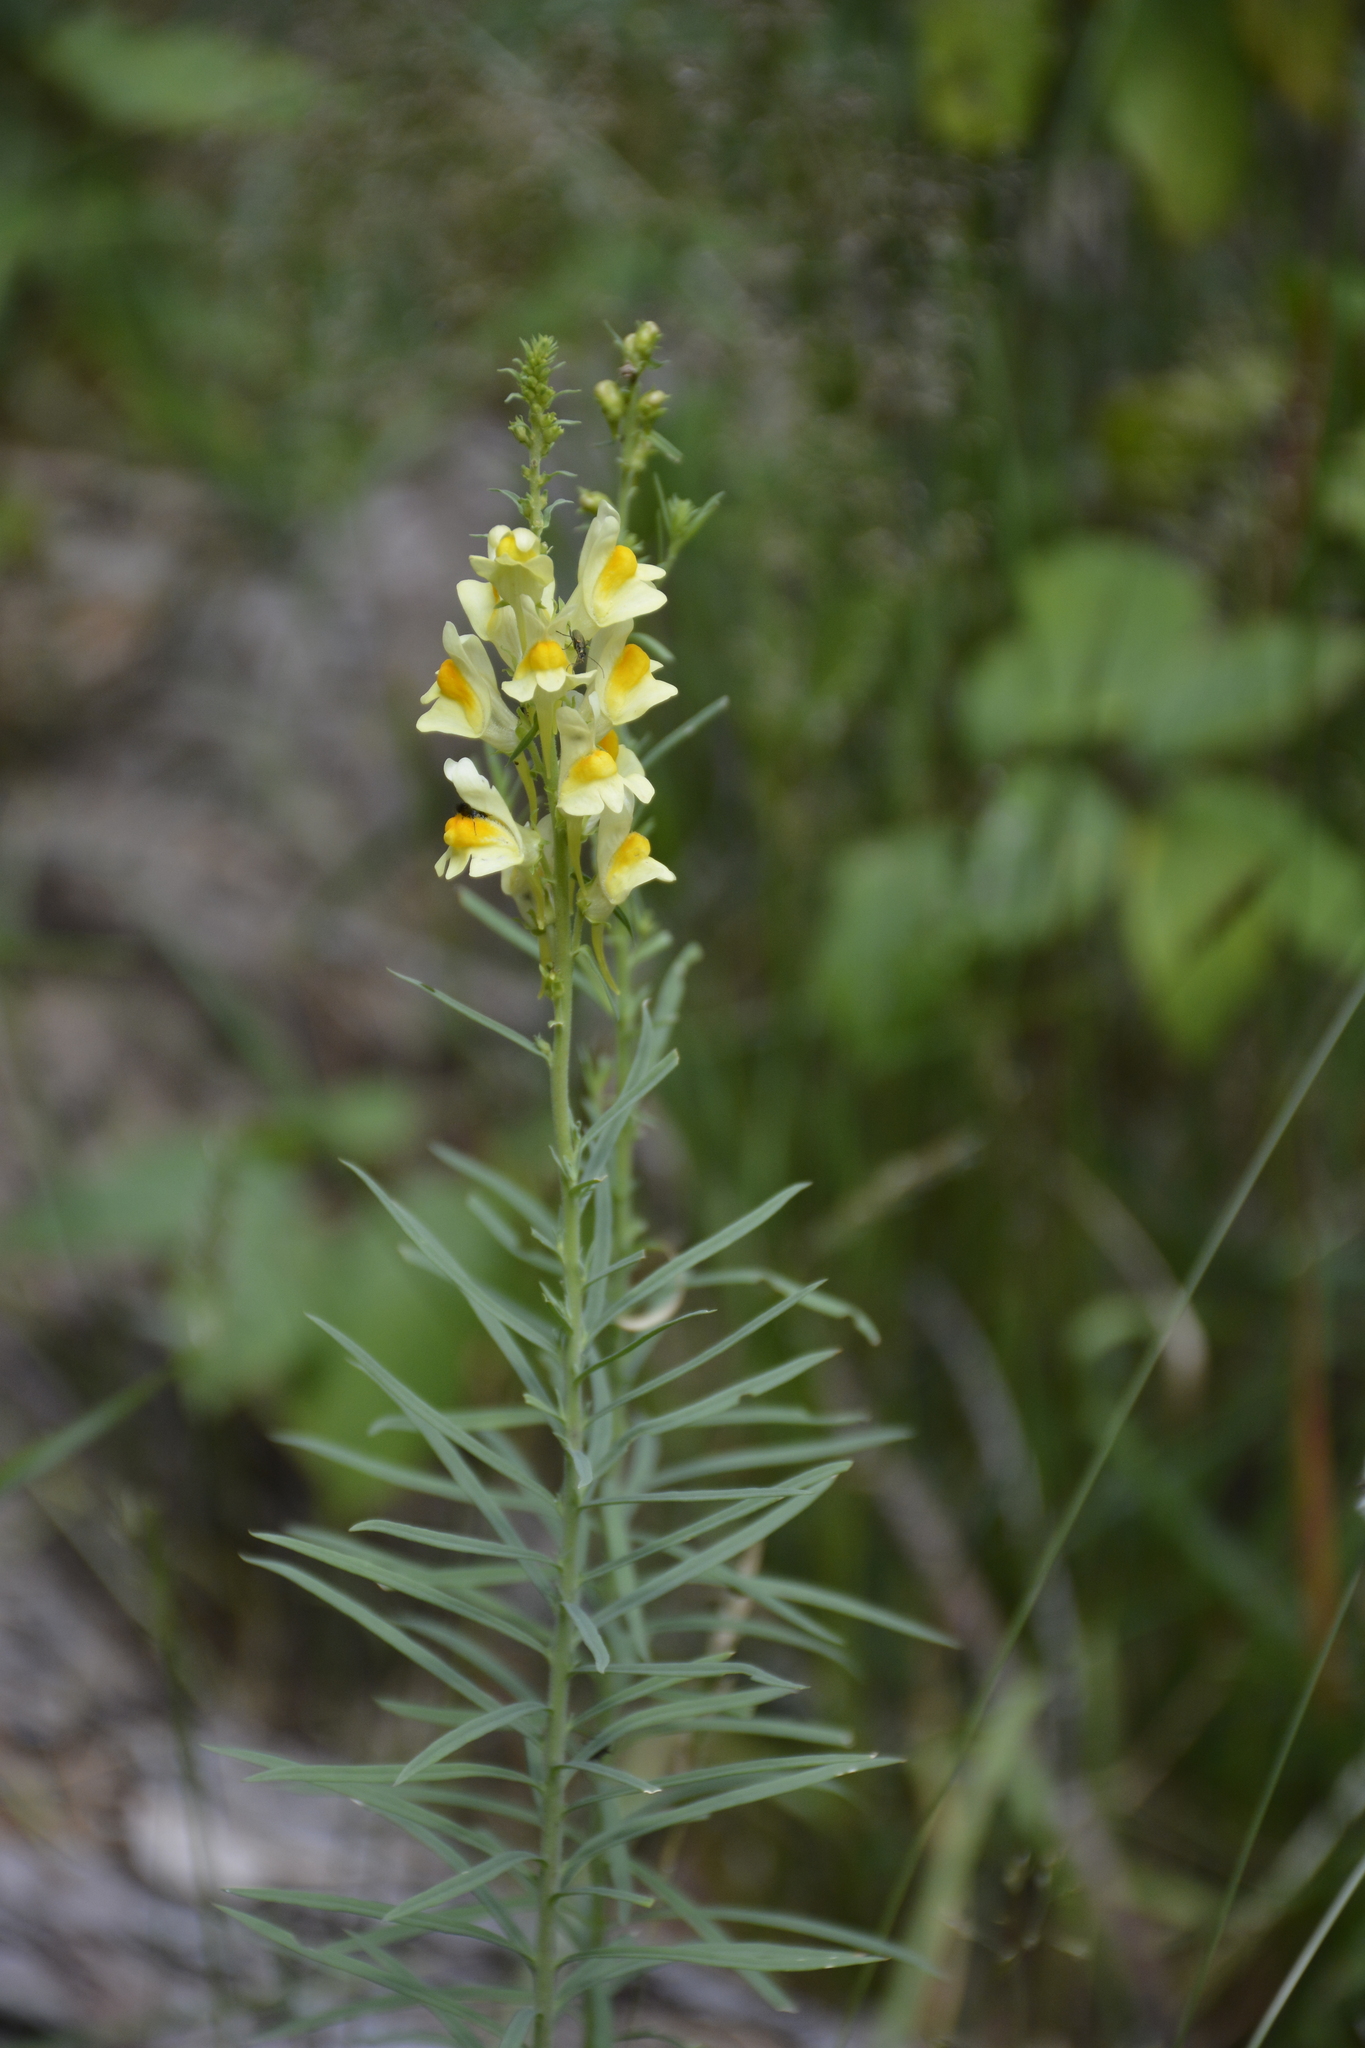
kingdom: Plantae
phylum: Tracheophyta
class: Magnoliopsida
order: Lamiales
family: Plantaginaceae
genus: Linaria
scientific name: Linaria vulgaris
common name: Butter and eggs
